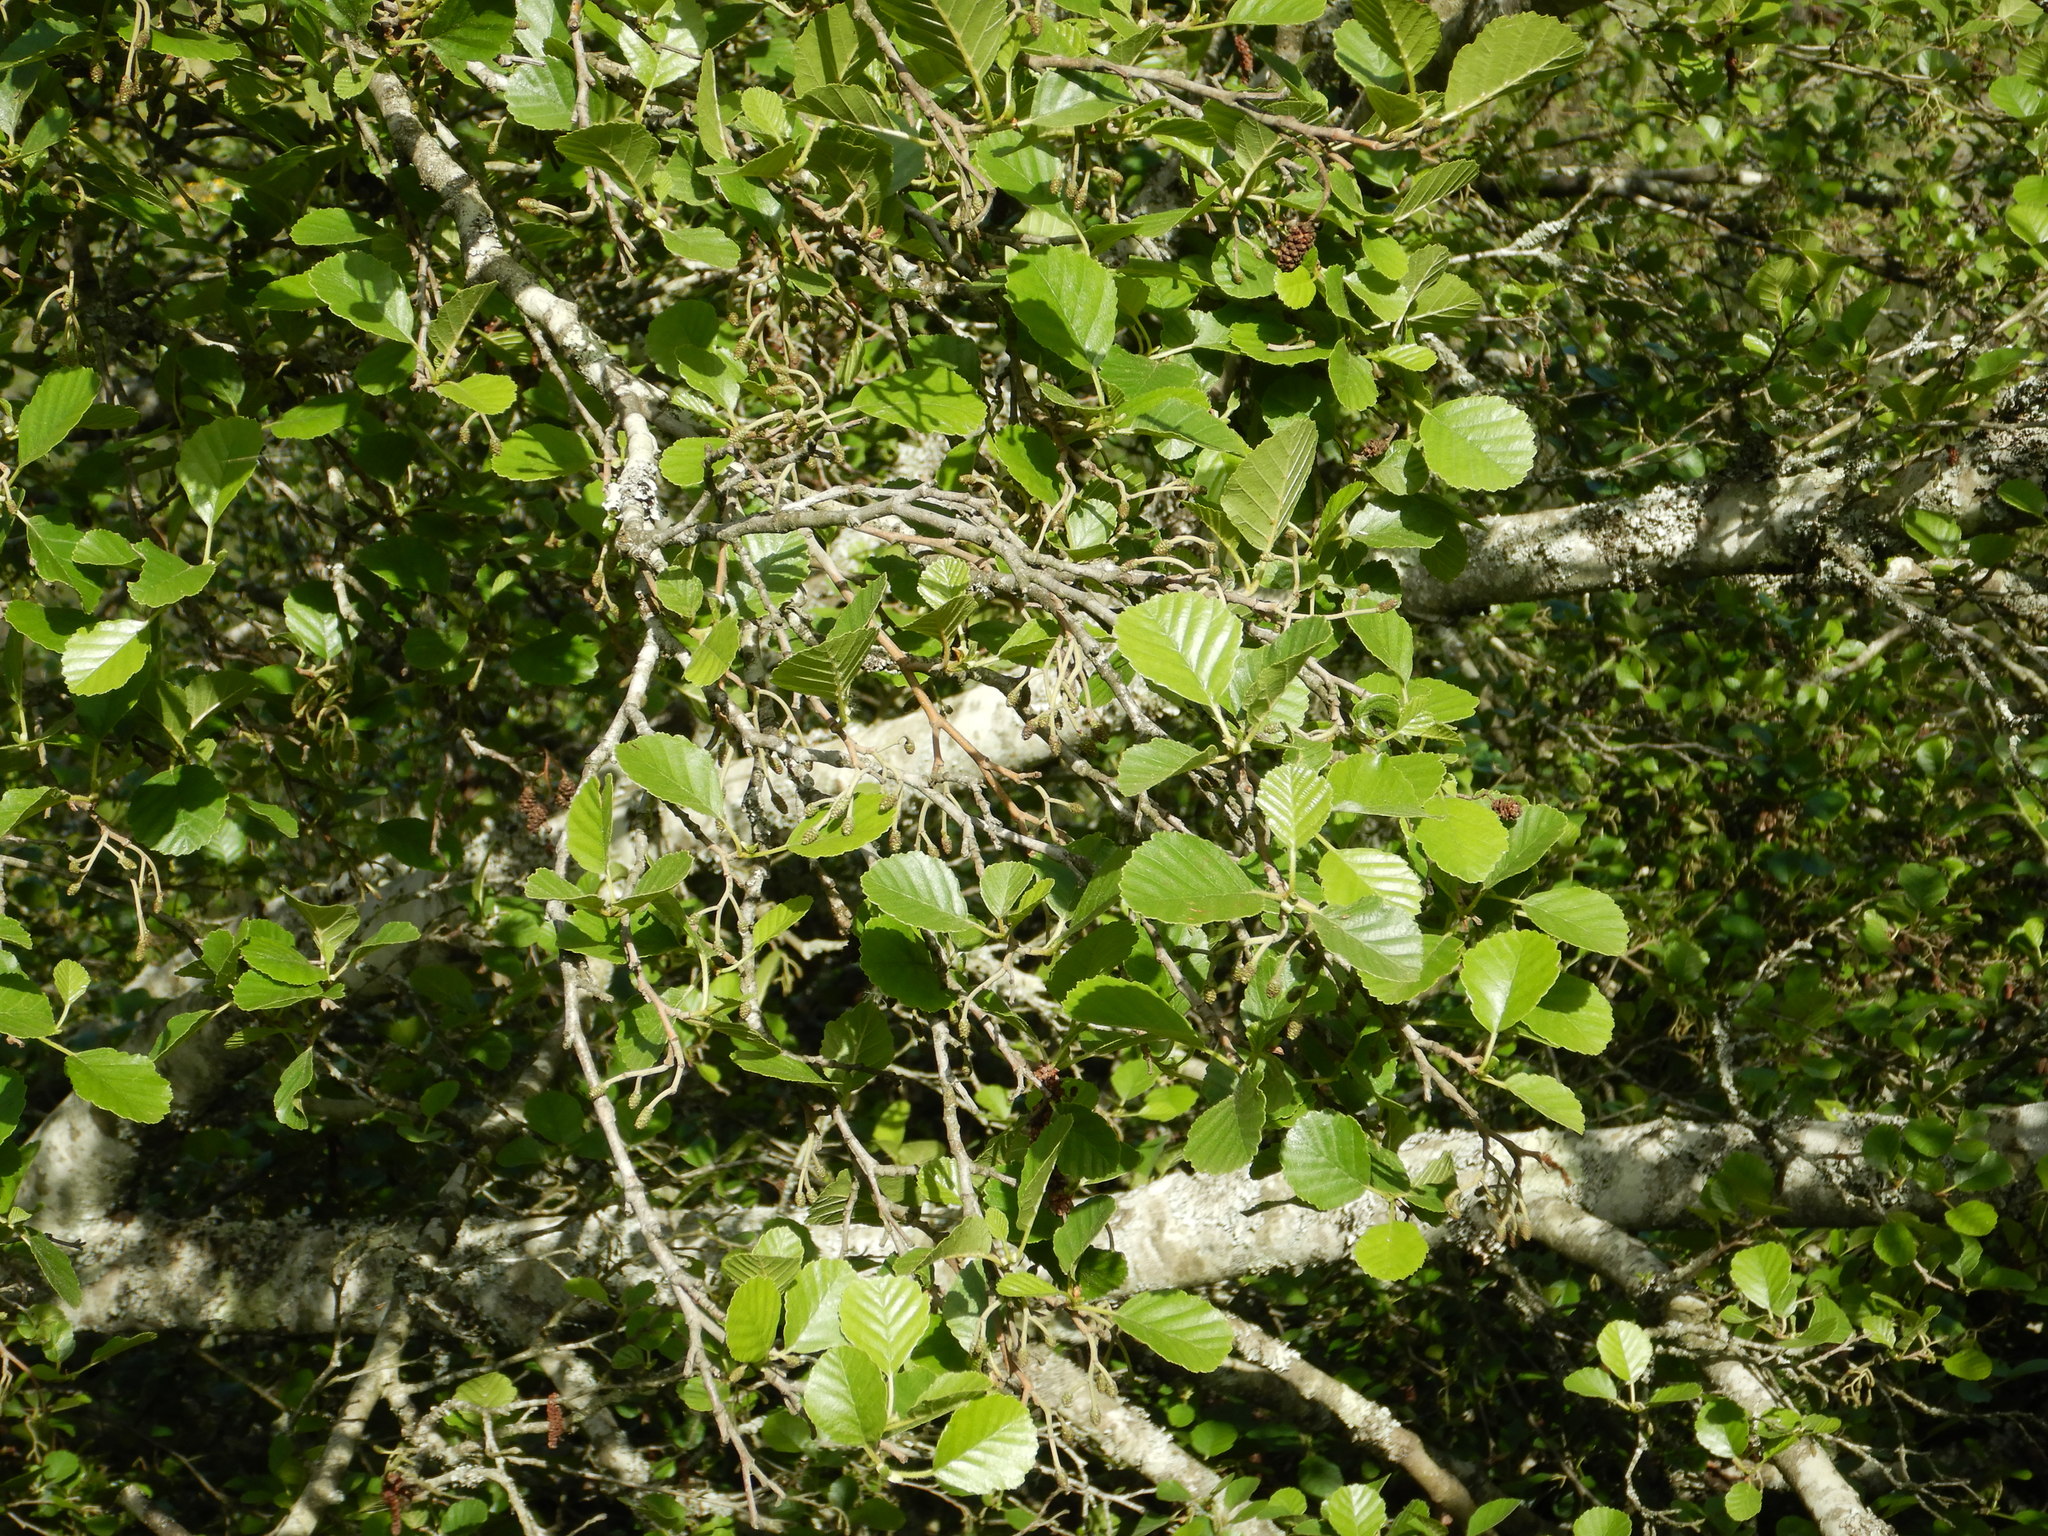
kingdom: Plantae
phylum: Tracheophyta
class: Magnoliopsida
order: Fagales
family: Betulaceae
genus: Alnus
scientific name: Alnus lusitanica
